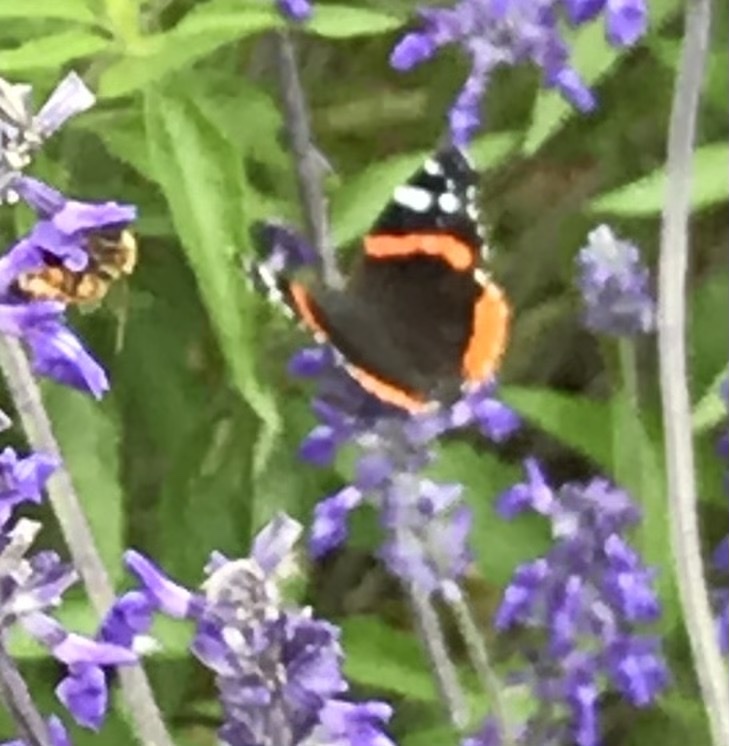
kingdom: Animalia
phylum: Arthropoda
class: Insecta
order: Lepidoptera
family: Nymphalidae
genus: Vanessa
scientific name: Vanessa atalanta
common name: Red admiral
